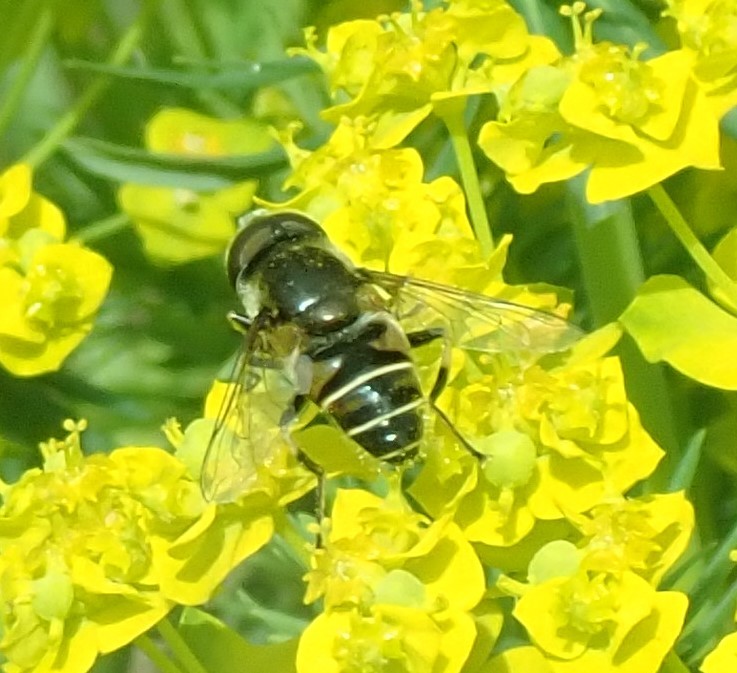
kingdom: Animalia
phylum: Arthropoda
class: Insecta
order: Diptera
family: Syrphidae
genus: Eristalis
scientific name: Eristalis dimidiata
